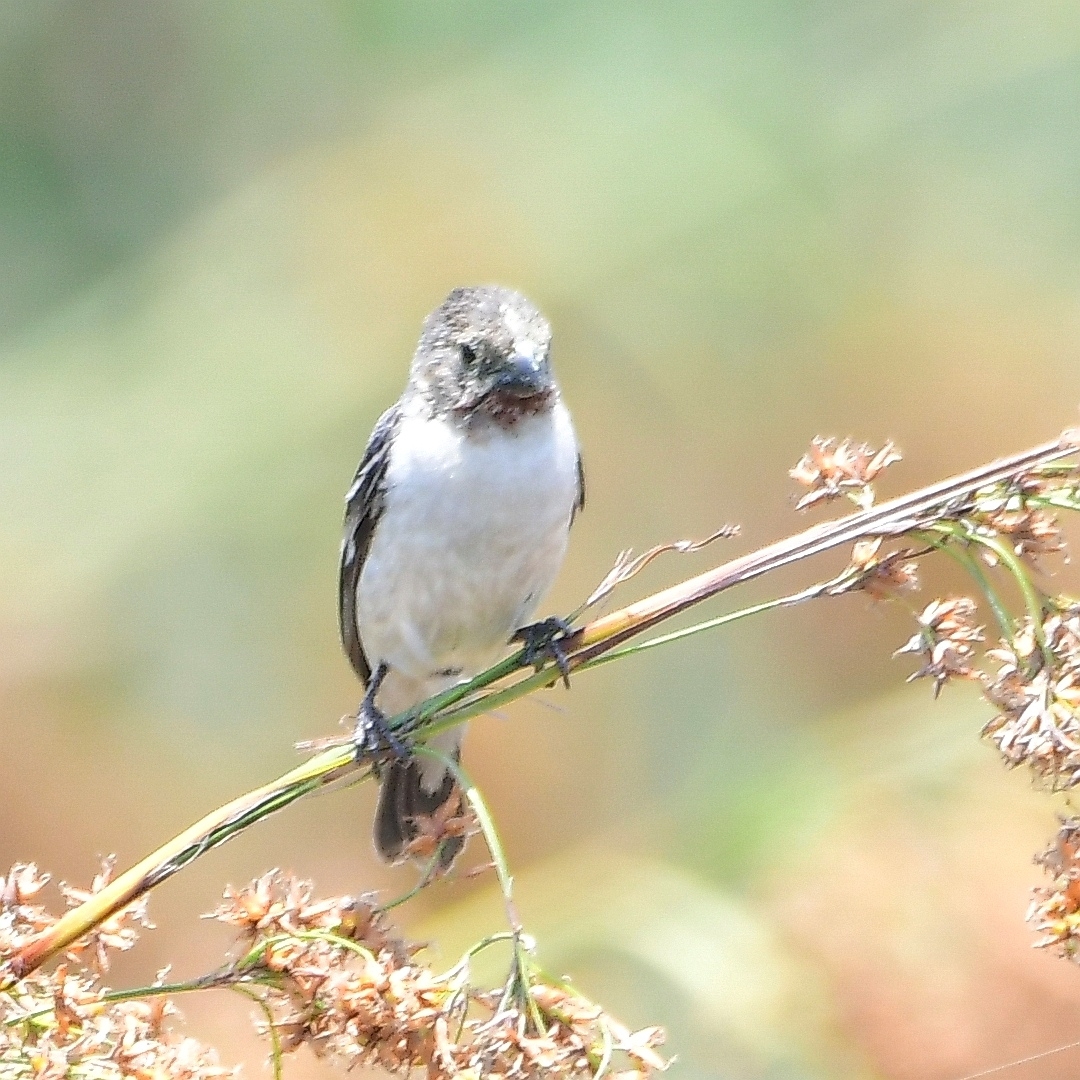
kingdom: Animalia
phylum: Chordata
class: Aves
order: Passeriformes
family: Thraupidae
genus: Sporophila
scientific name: Sporophila telasco
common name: Chestnut-throated seedeater
